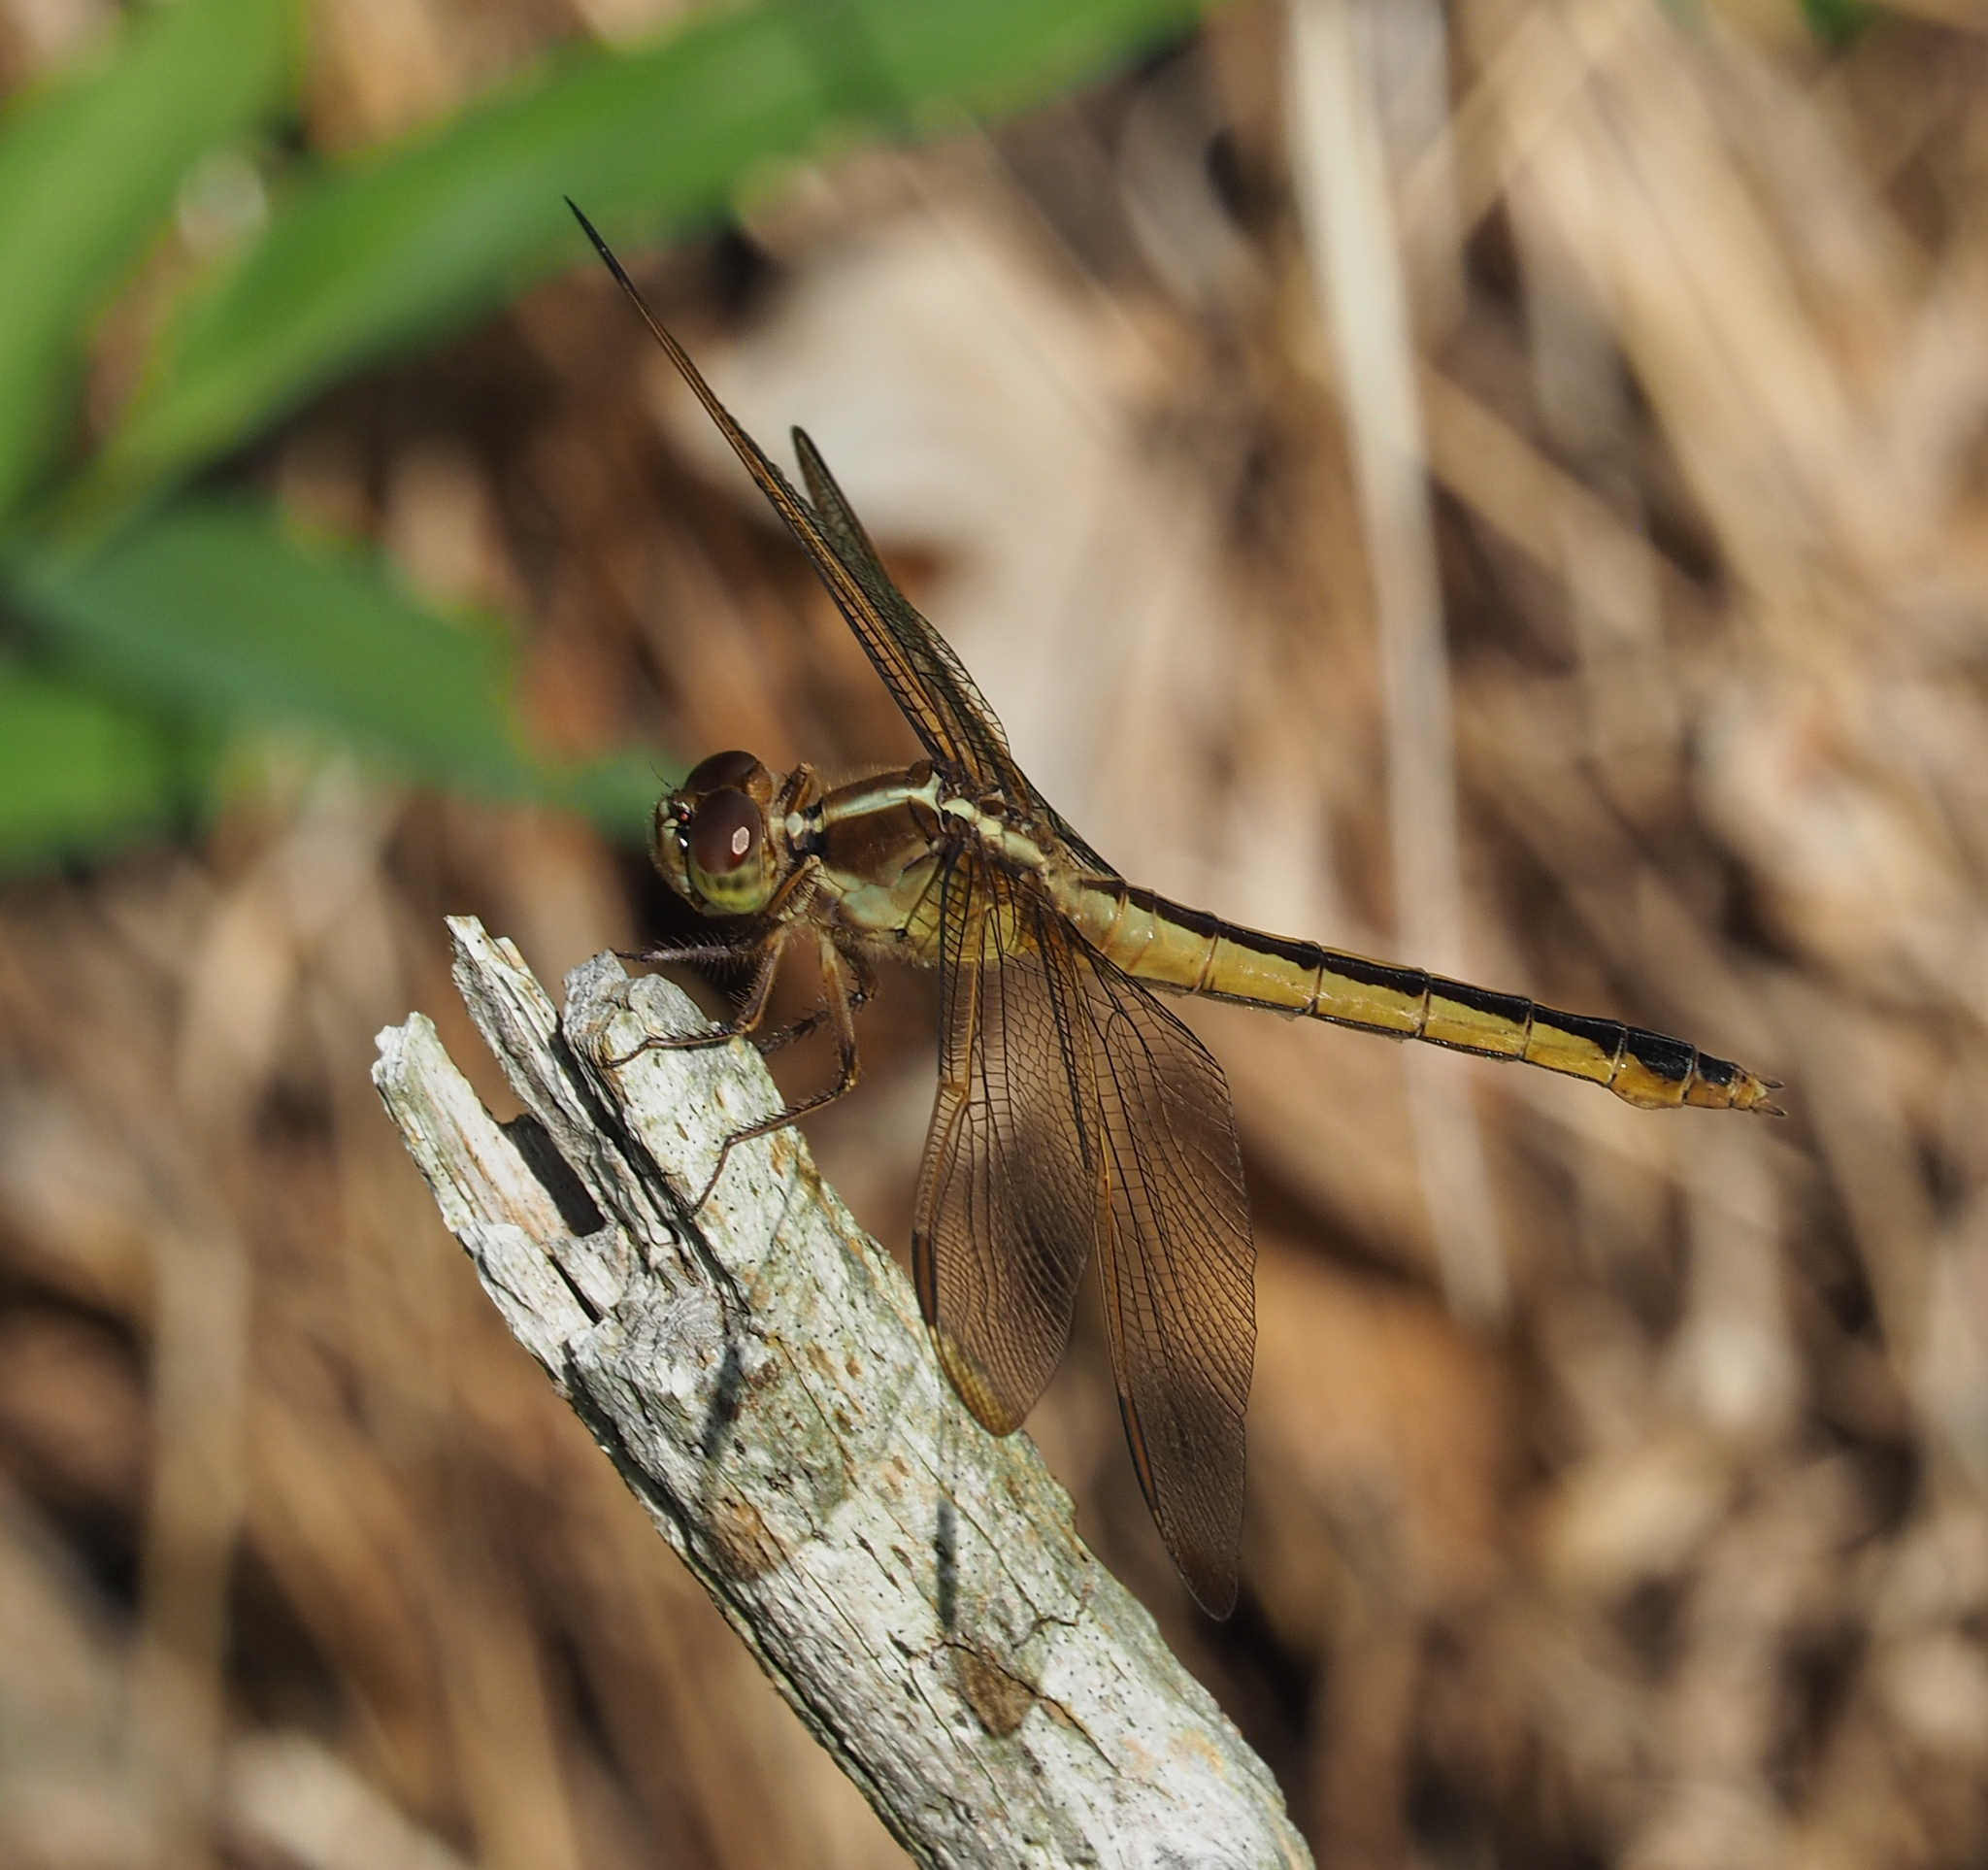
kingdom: Animalia
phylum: Arthropoda
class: Insecta
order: Odonata
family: Libellulidae
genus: Libellula
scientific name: Libellula needhami
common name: Needham's skimmer
